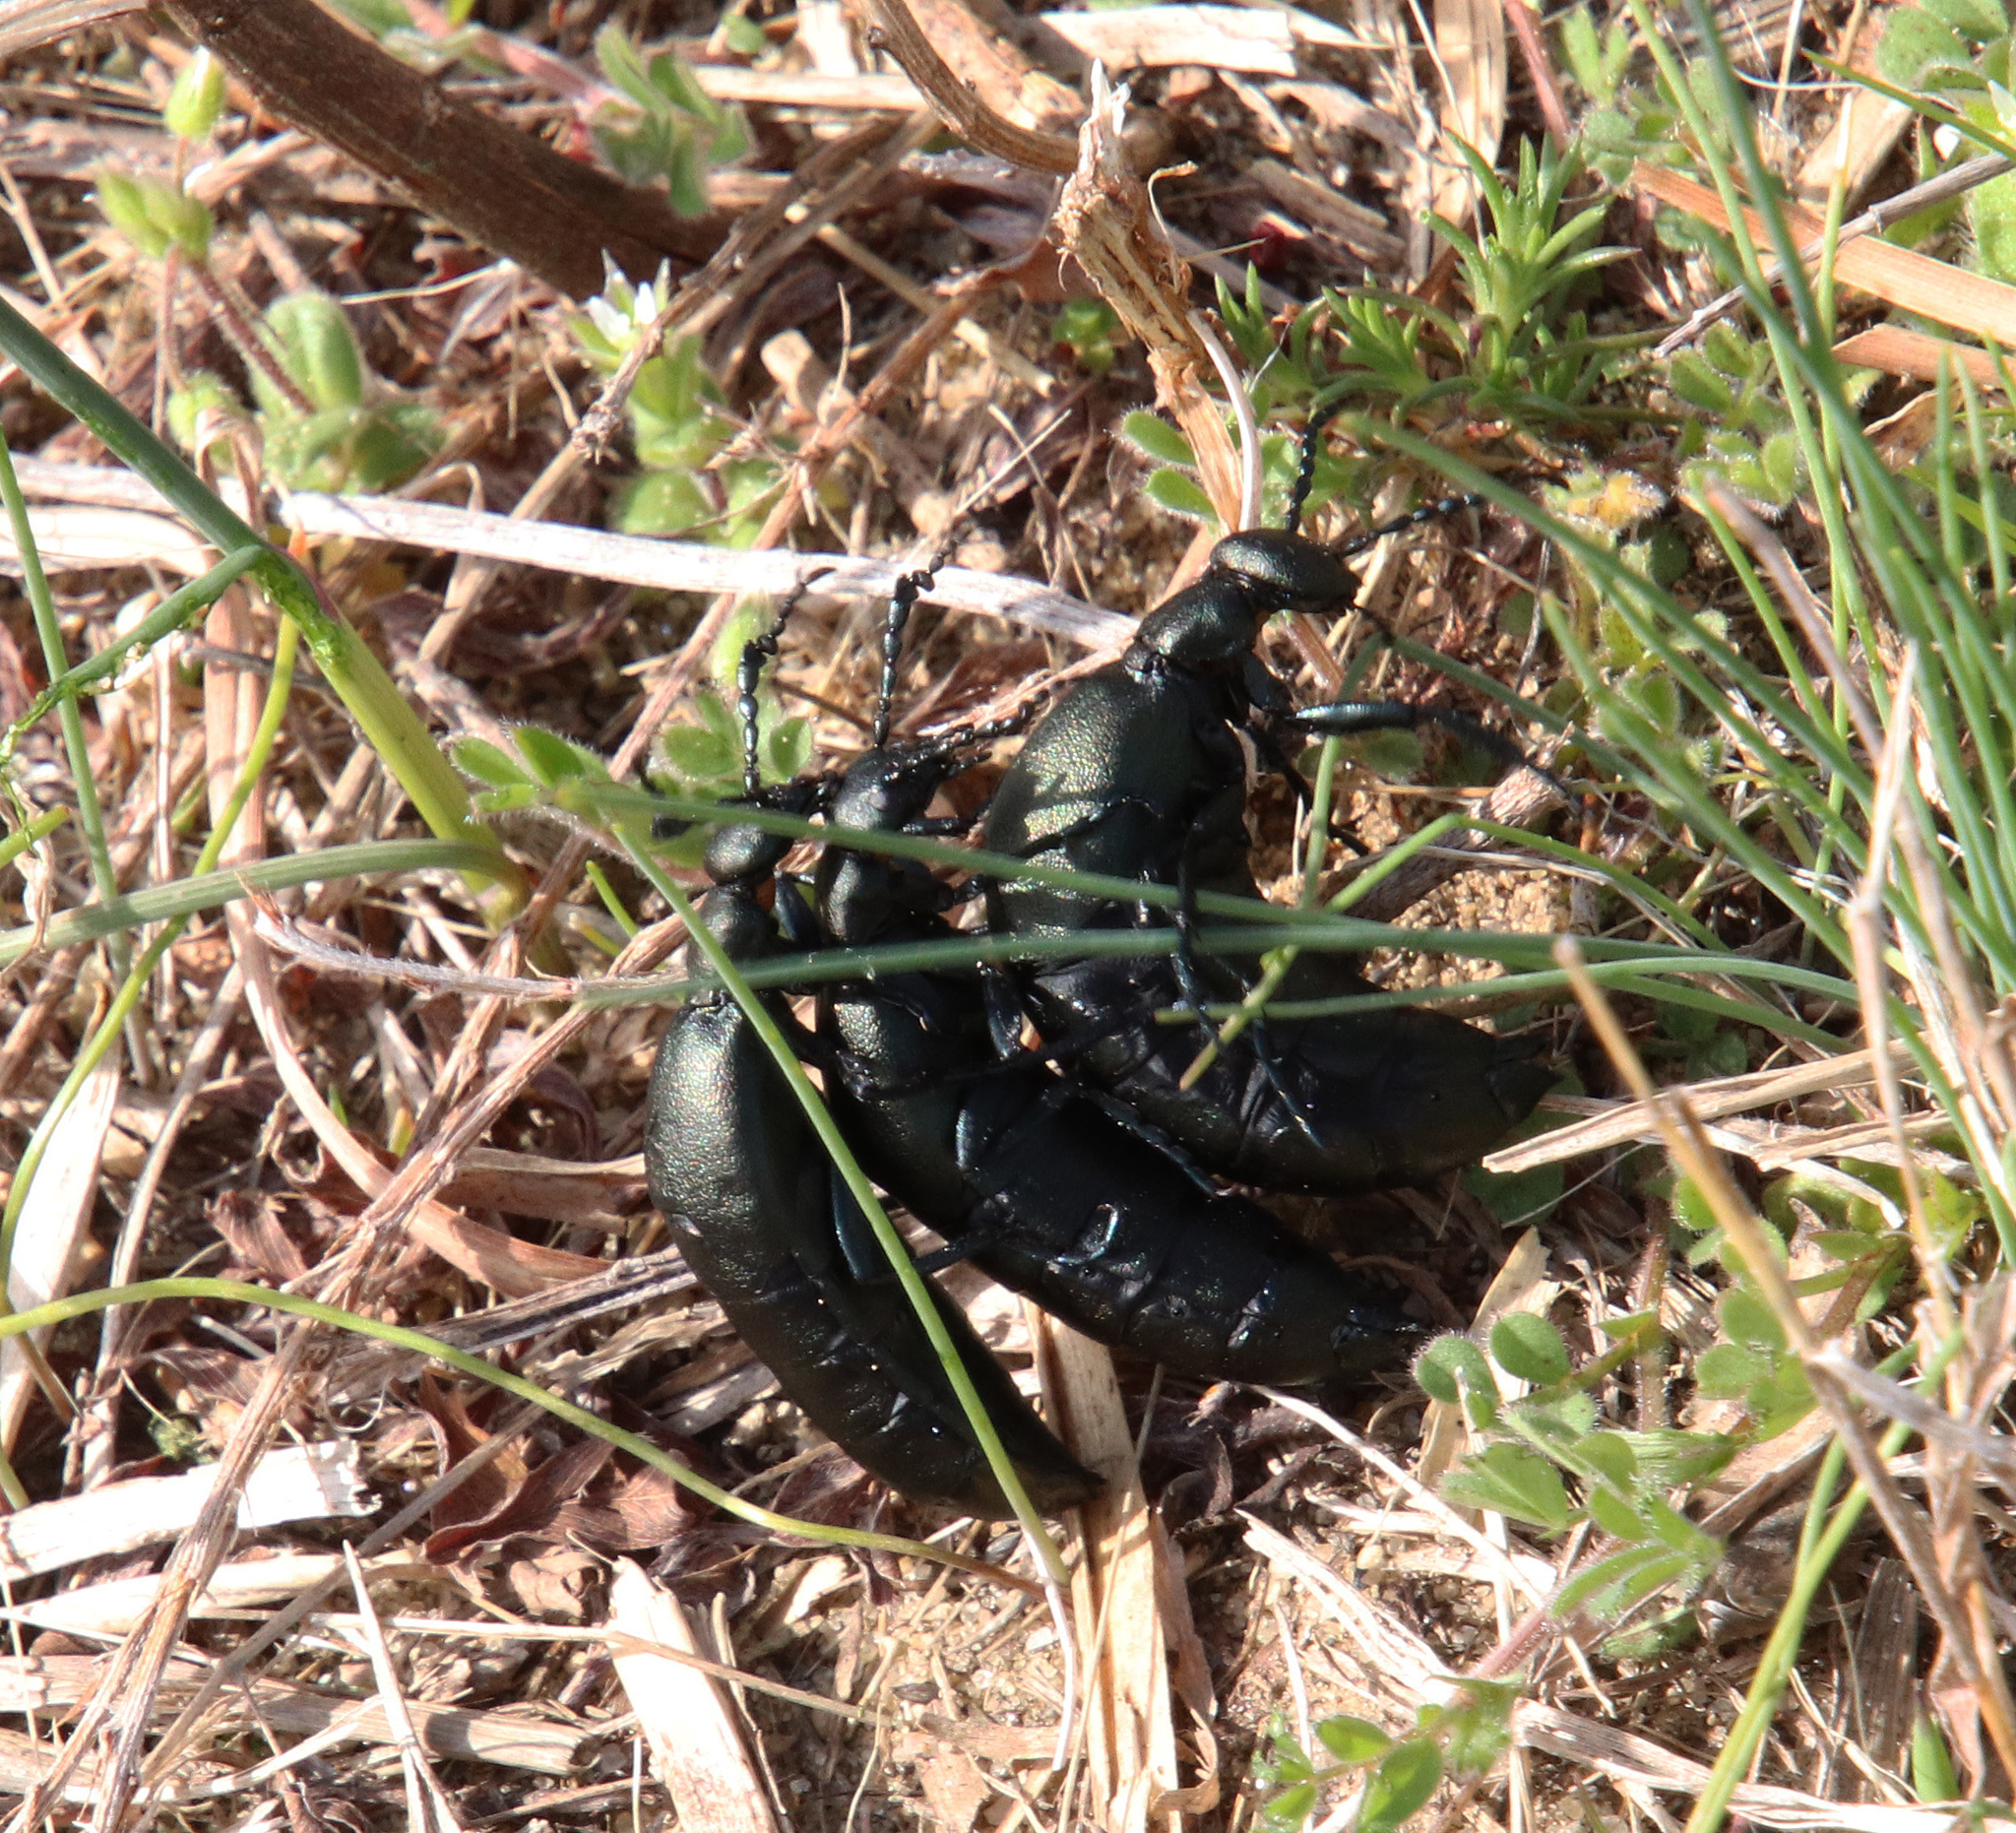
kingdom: Animalia
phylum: Arthropoda
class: Insecta
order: Coleoptera
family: Meloidae
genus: Meloe
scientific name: Meloe campanicollis
